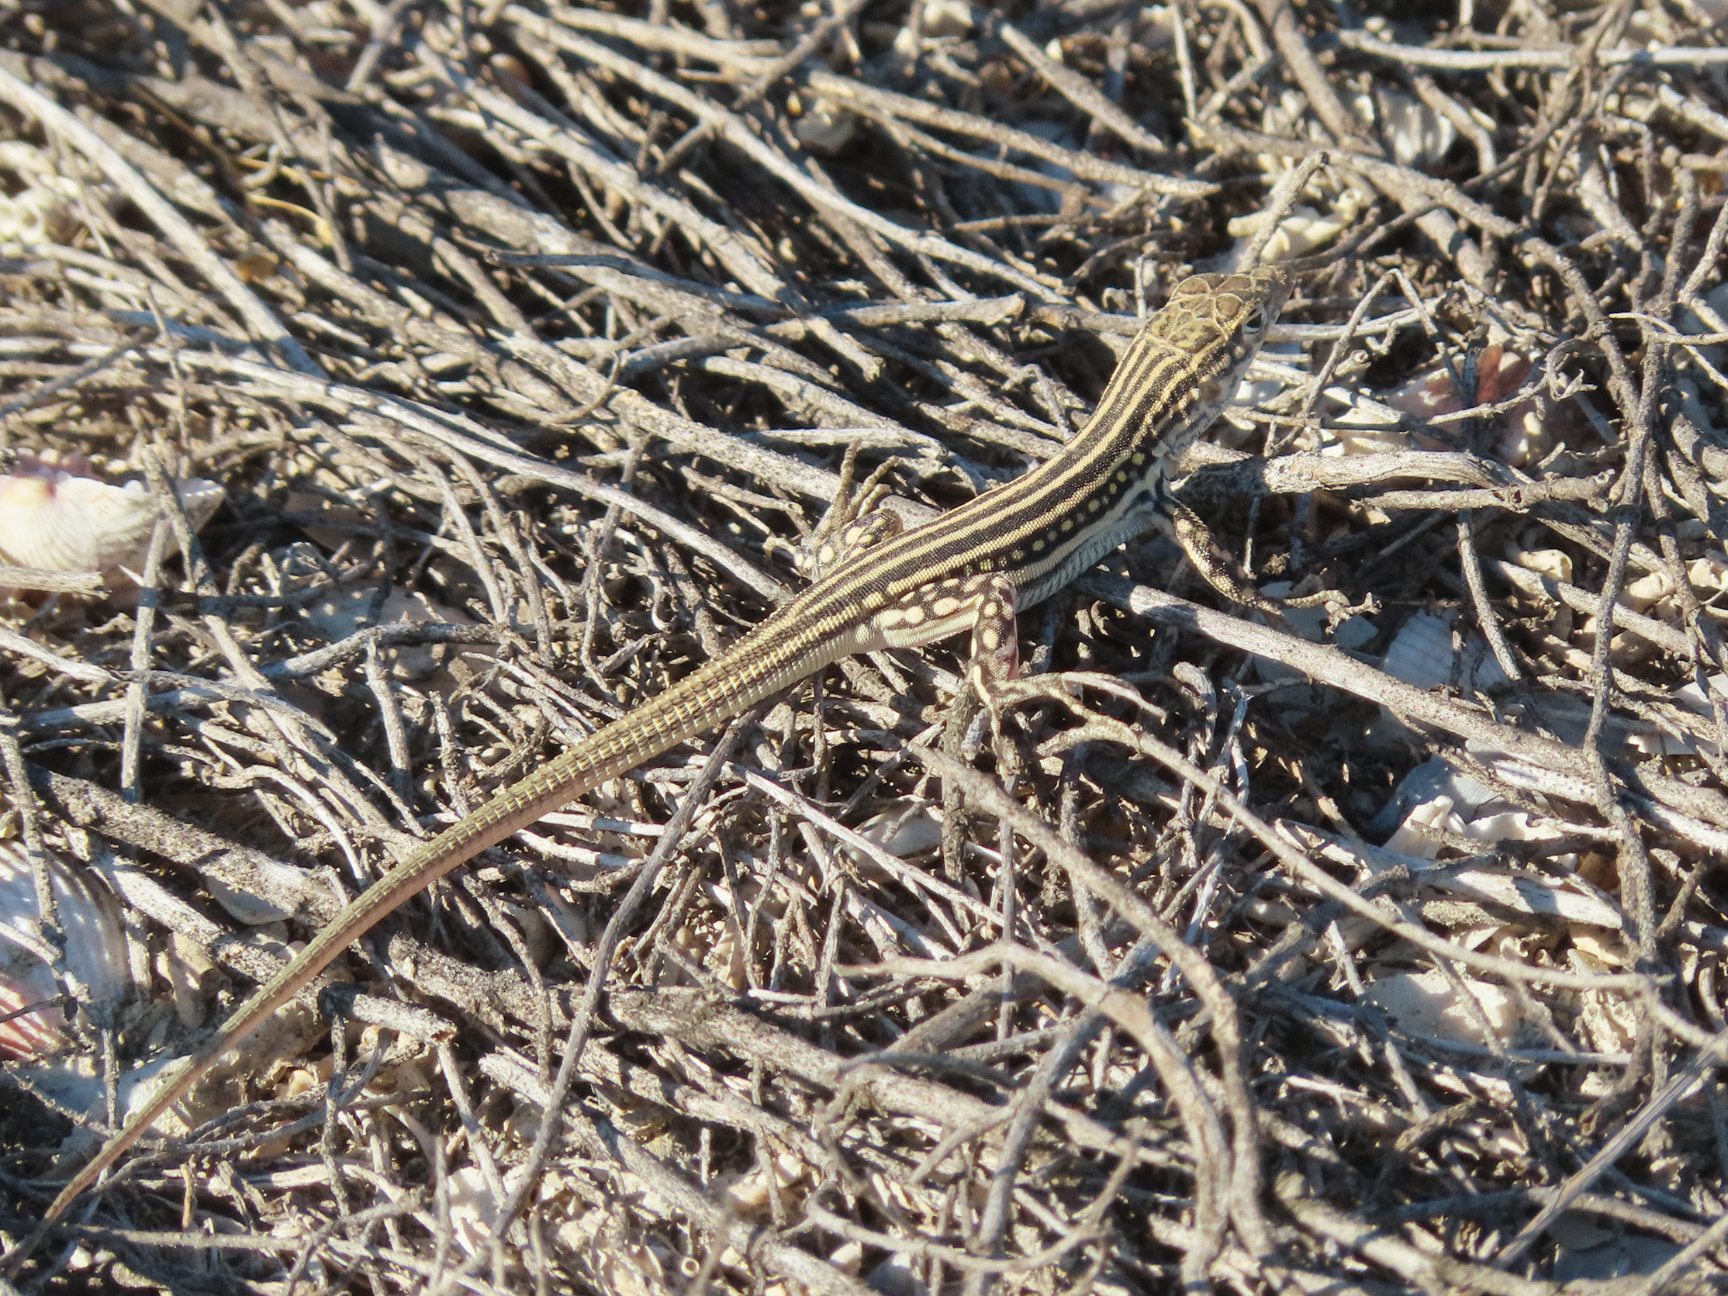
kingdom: Animalia
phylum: Chordata
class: Squamata
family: Lacertidae
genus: Eremias
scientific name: Eremias velox
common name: Central asian racerunner
